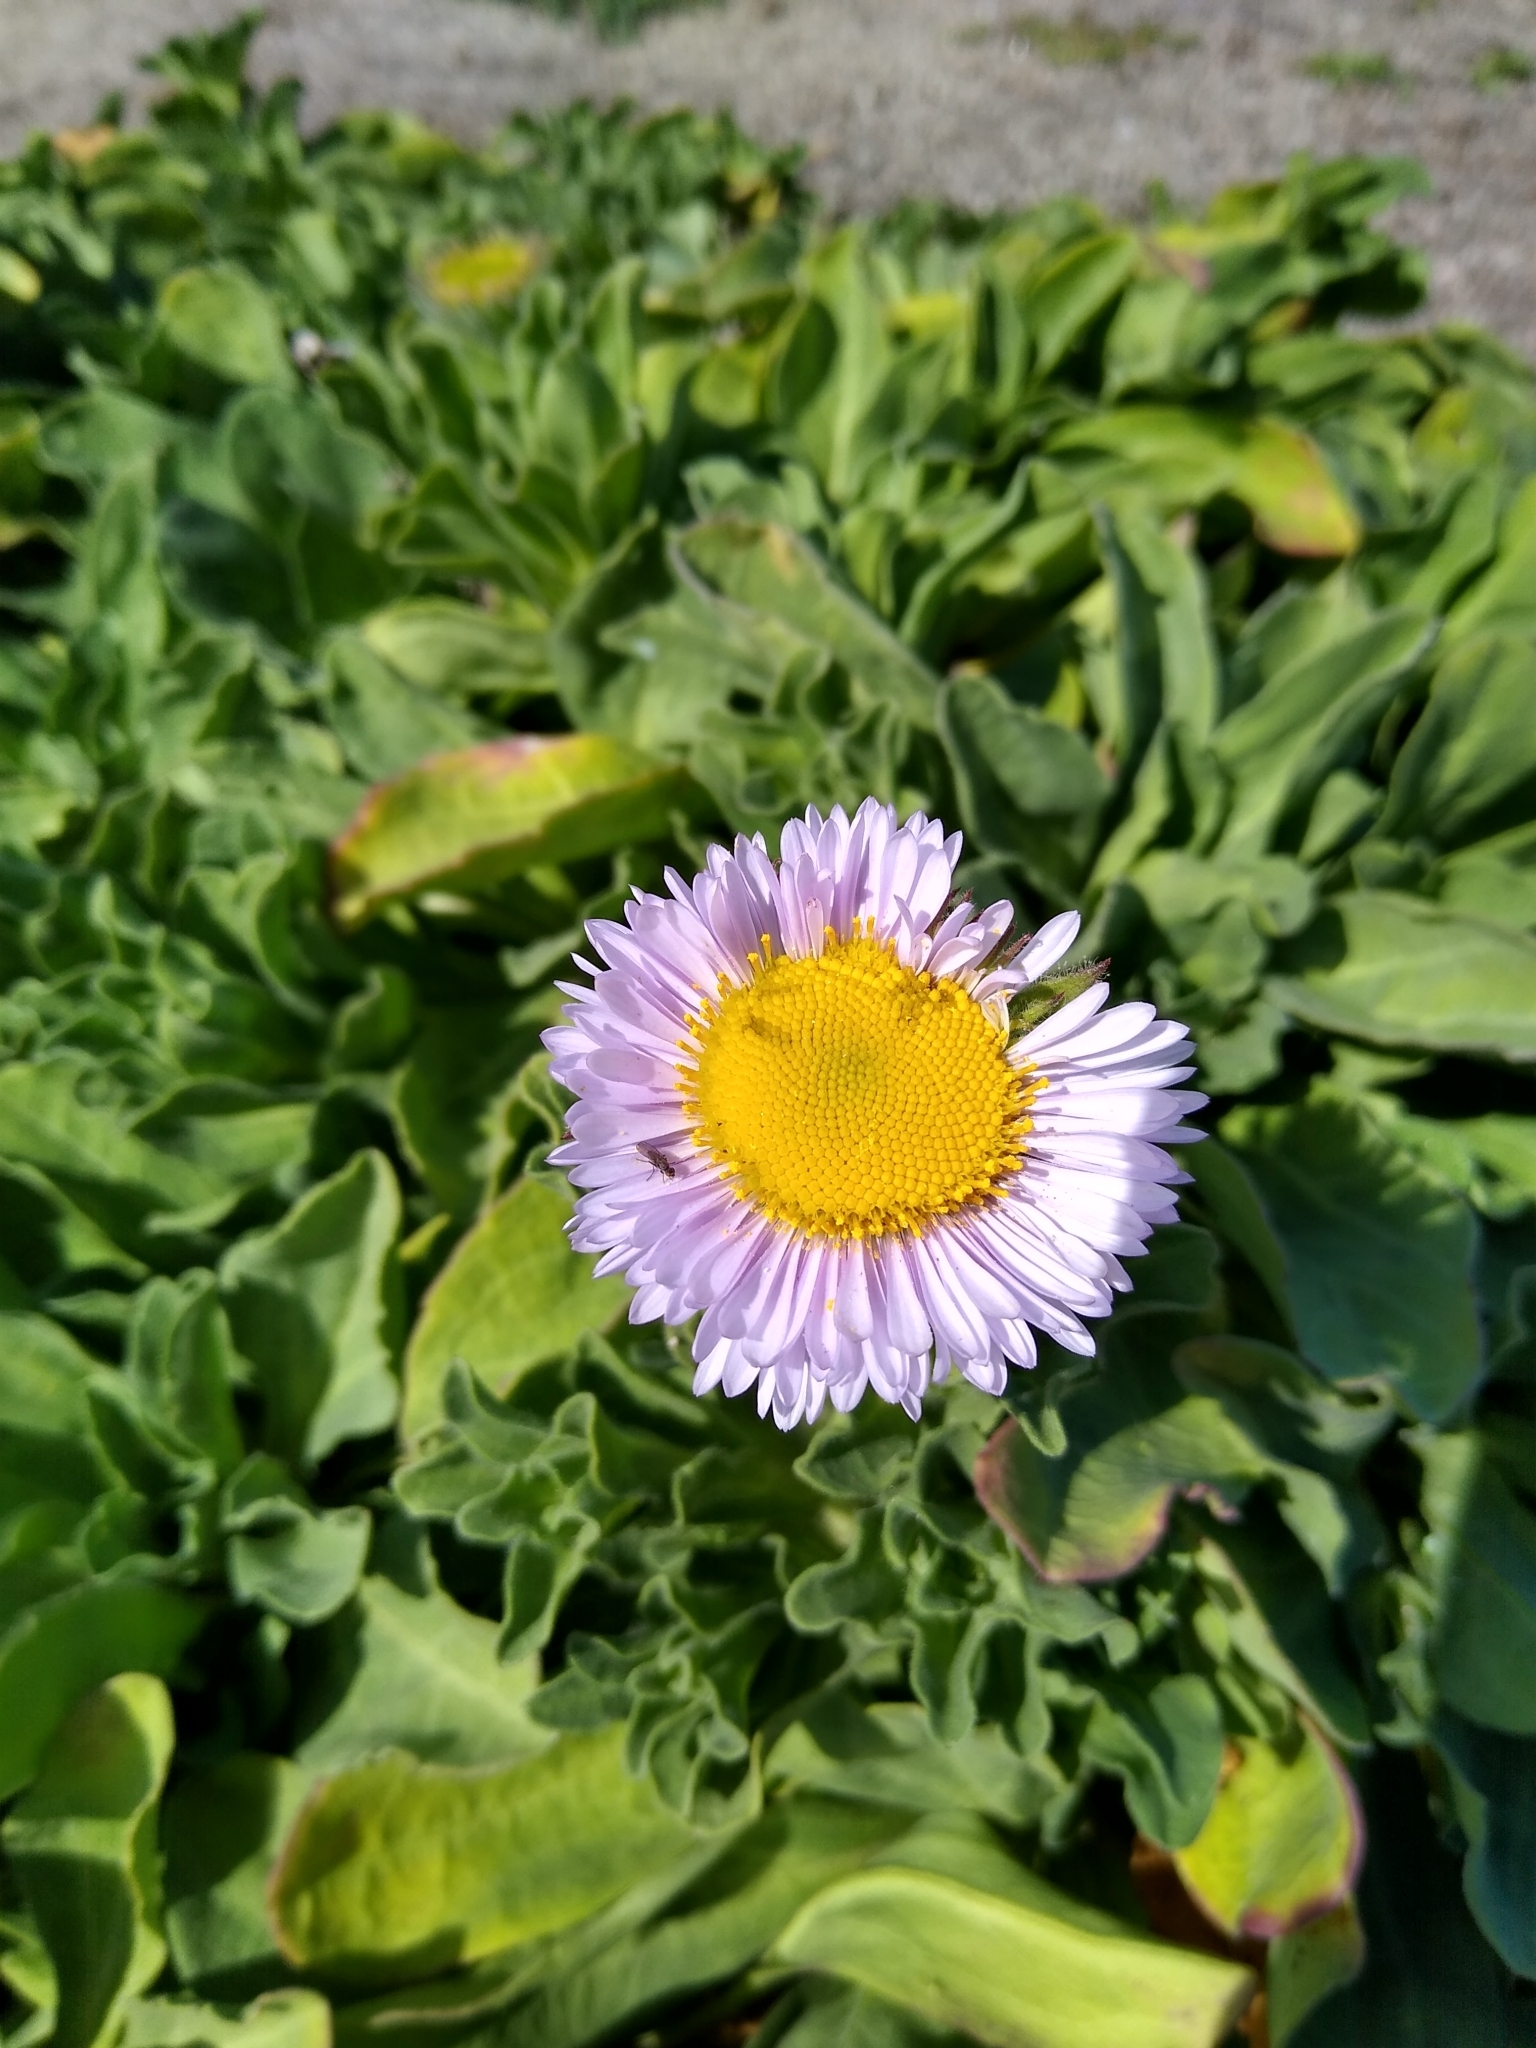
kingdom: Plantae
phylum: Tracheophyta
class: Magnoliopsida
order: Asterales
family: Asteraceae
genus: Erigeron
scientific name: Erigeron glaucus
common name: Seaside daisy
